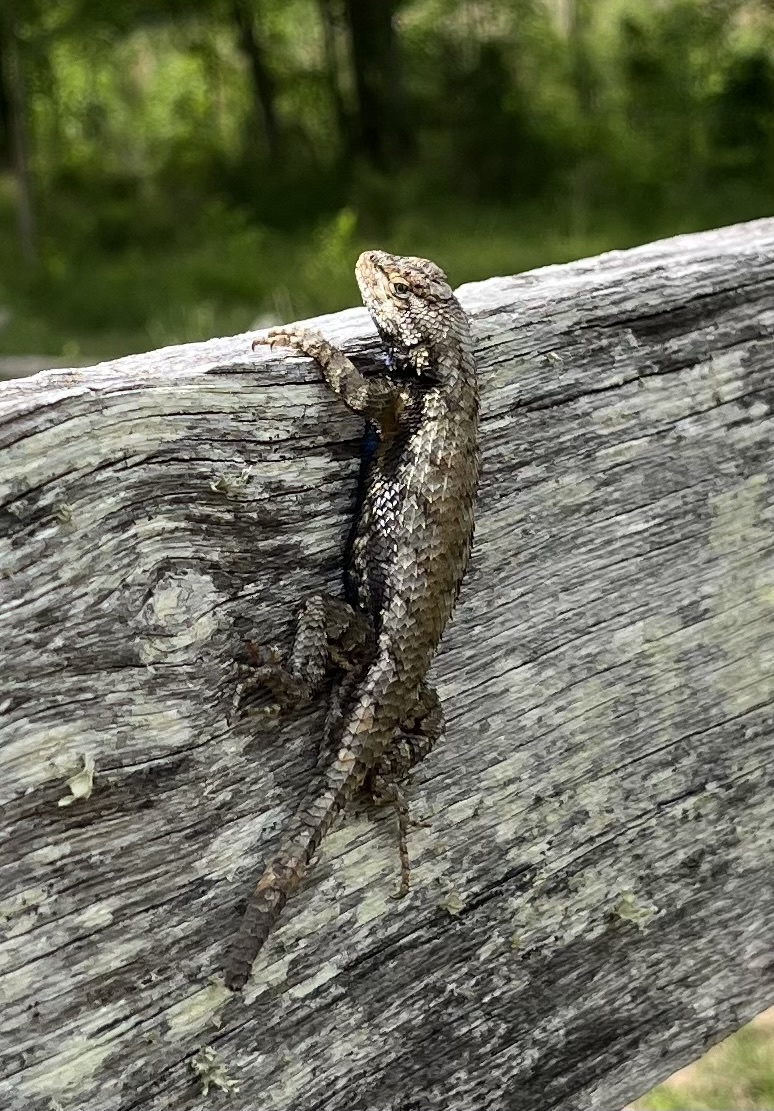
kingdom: Animalia
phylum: Chordata
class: Squamata
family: Phrynosomatidae
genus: Sceloporus
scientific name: Sceloporus undulatus
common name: Eastern fence lizard
